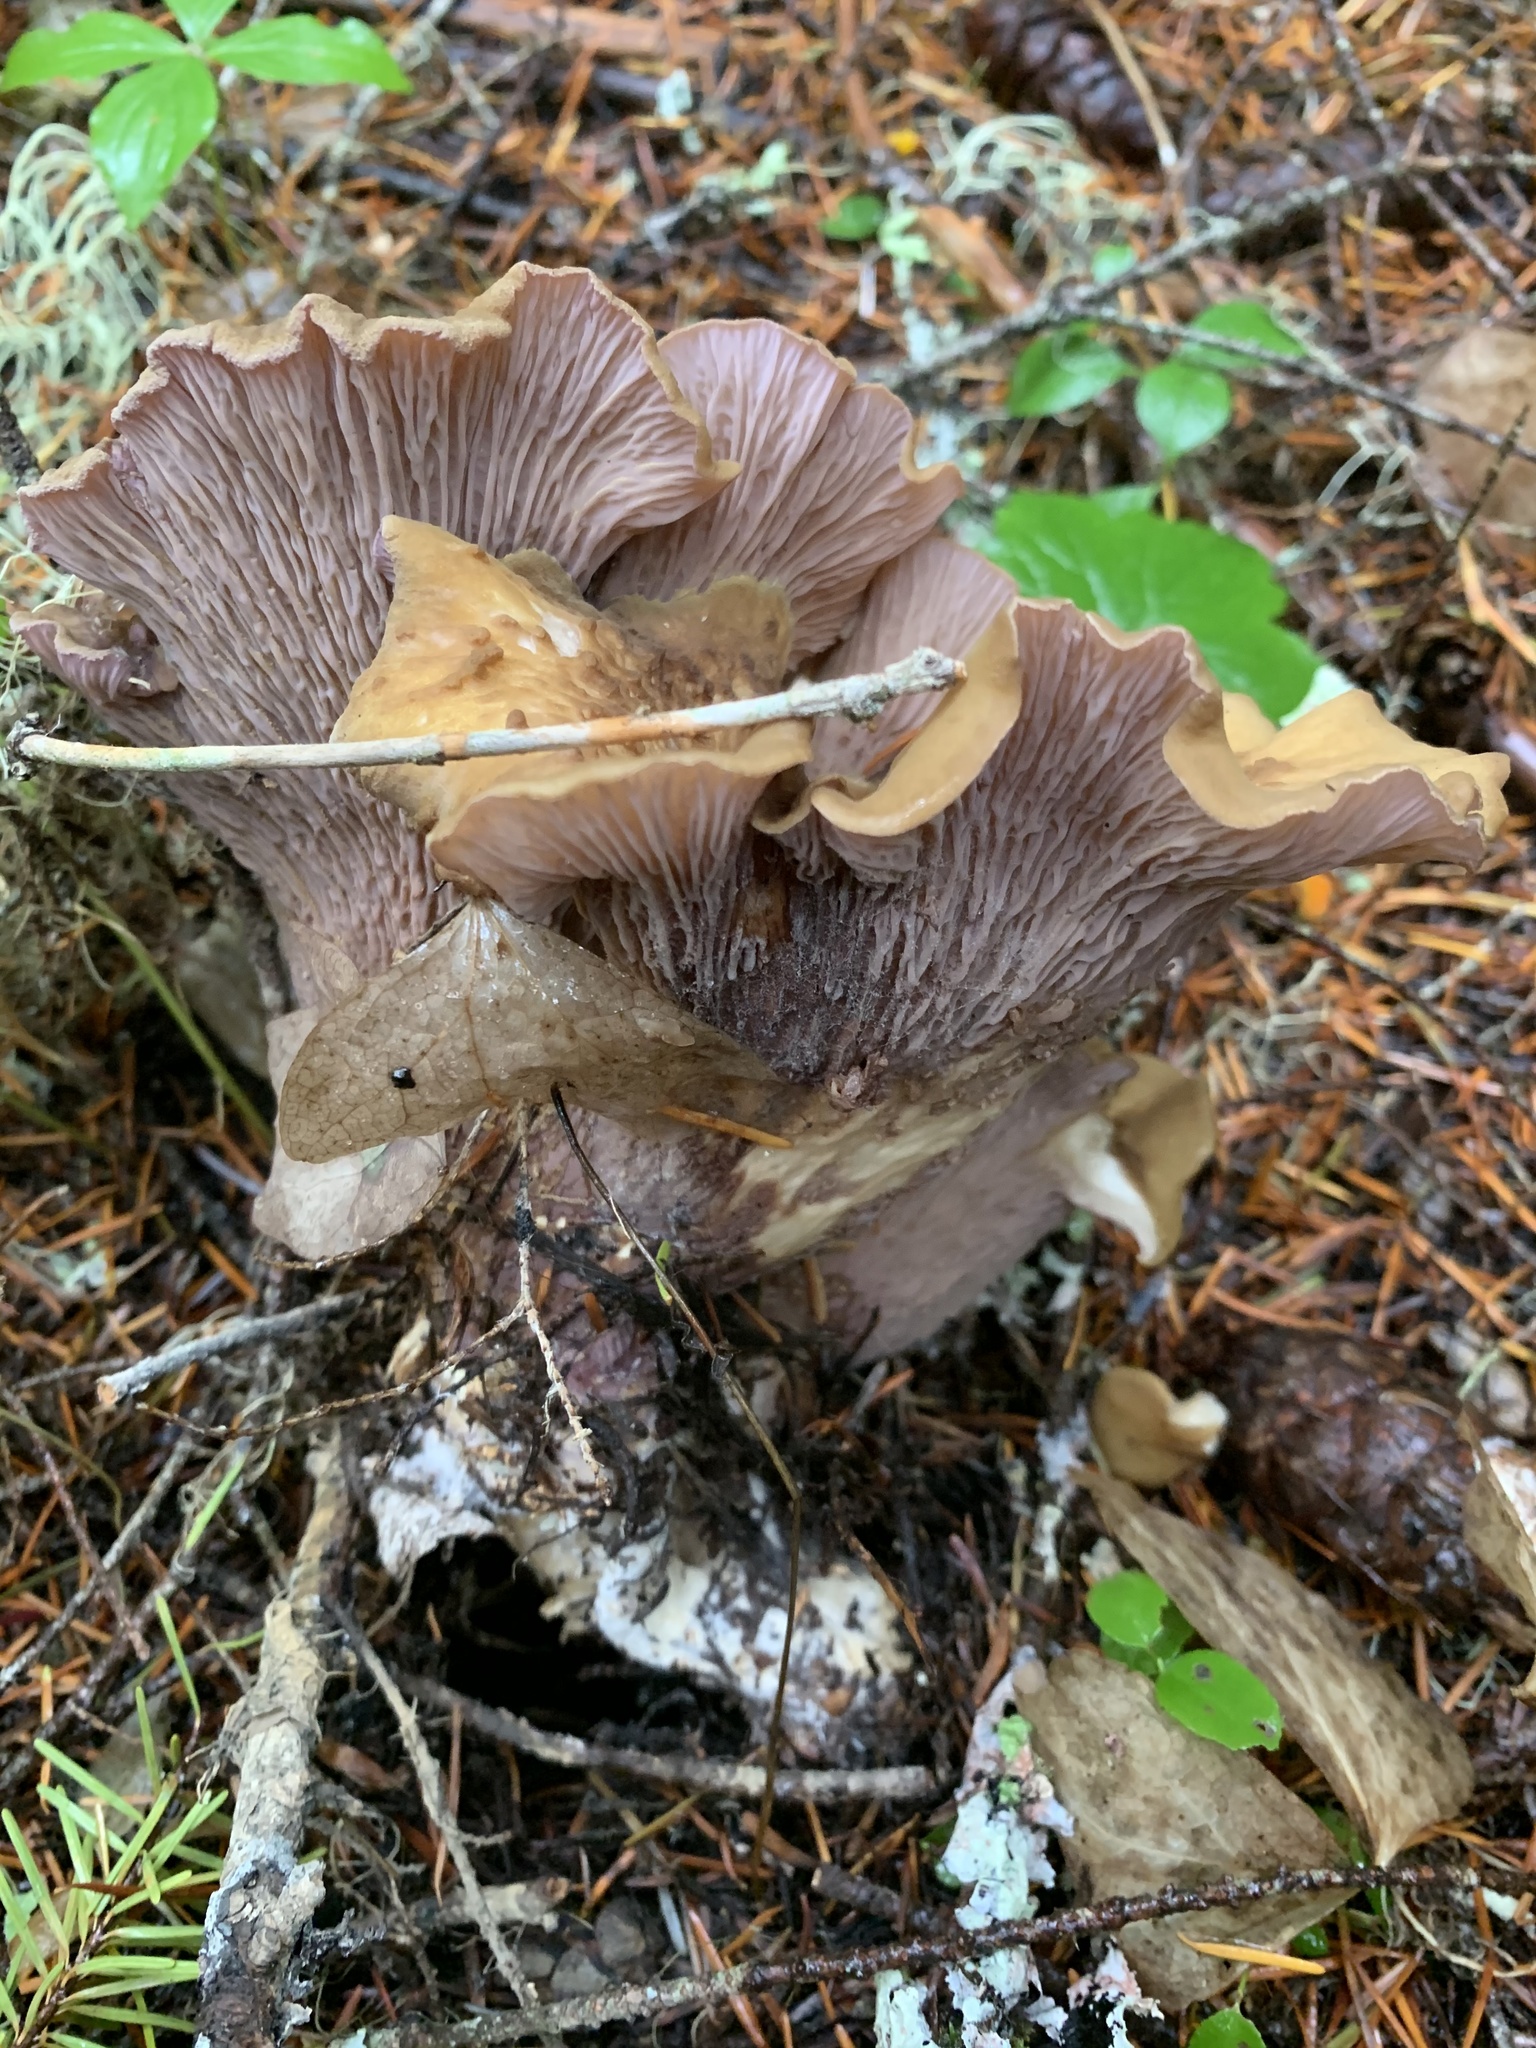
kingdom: Fungi
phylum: Basidiomycota
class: Agaricomycetes
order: Gomphales
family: Gomphaceae
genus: Gomphus
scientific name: Gomphus clavatus
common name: Pig's ear
